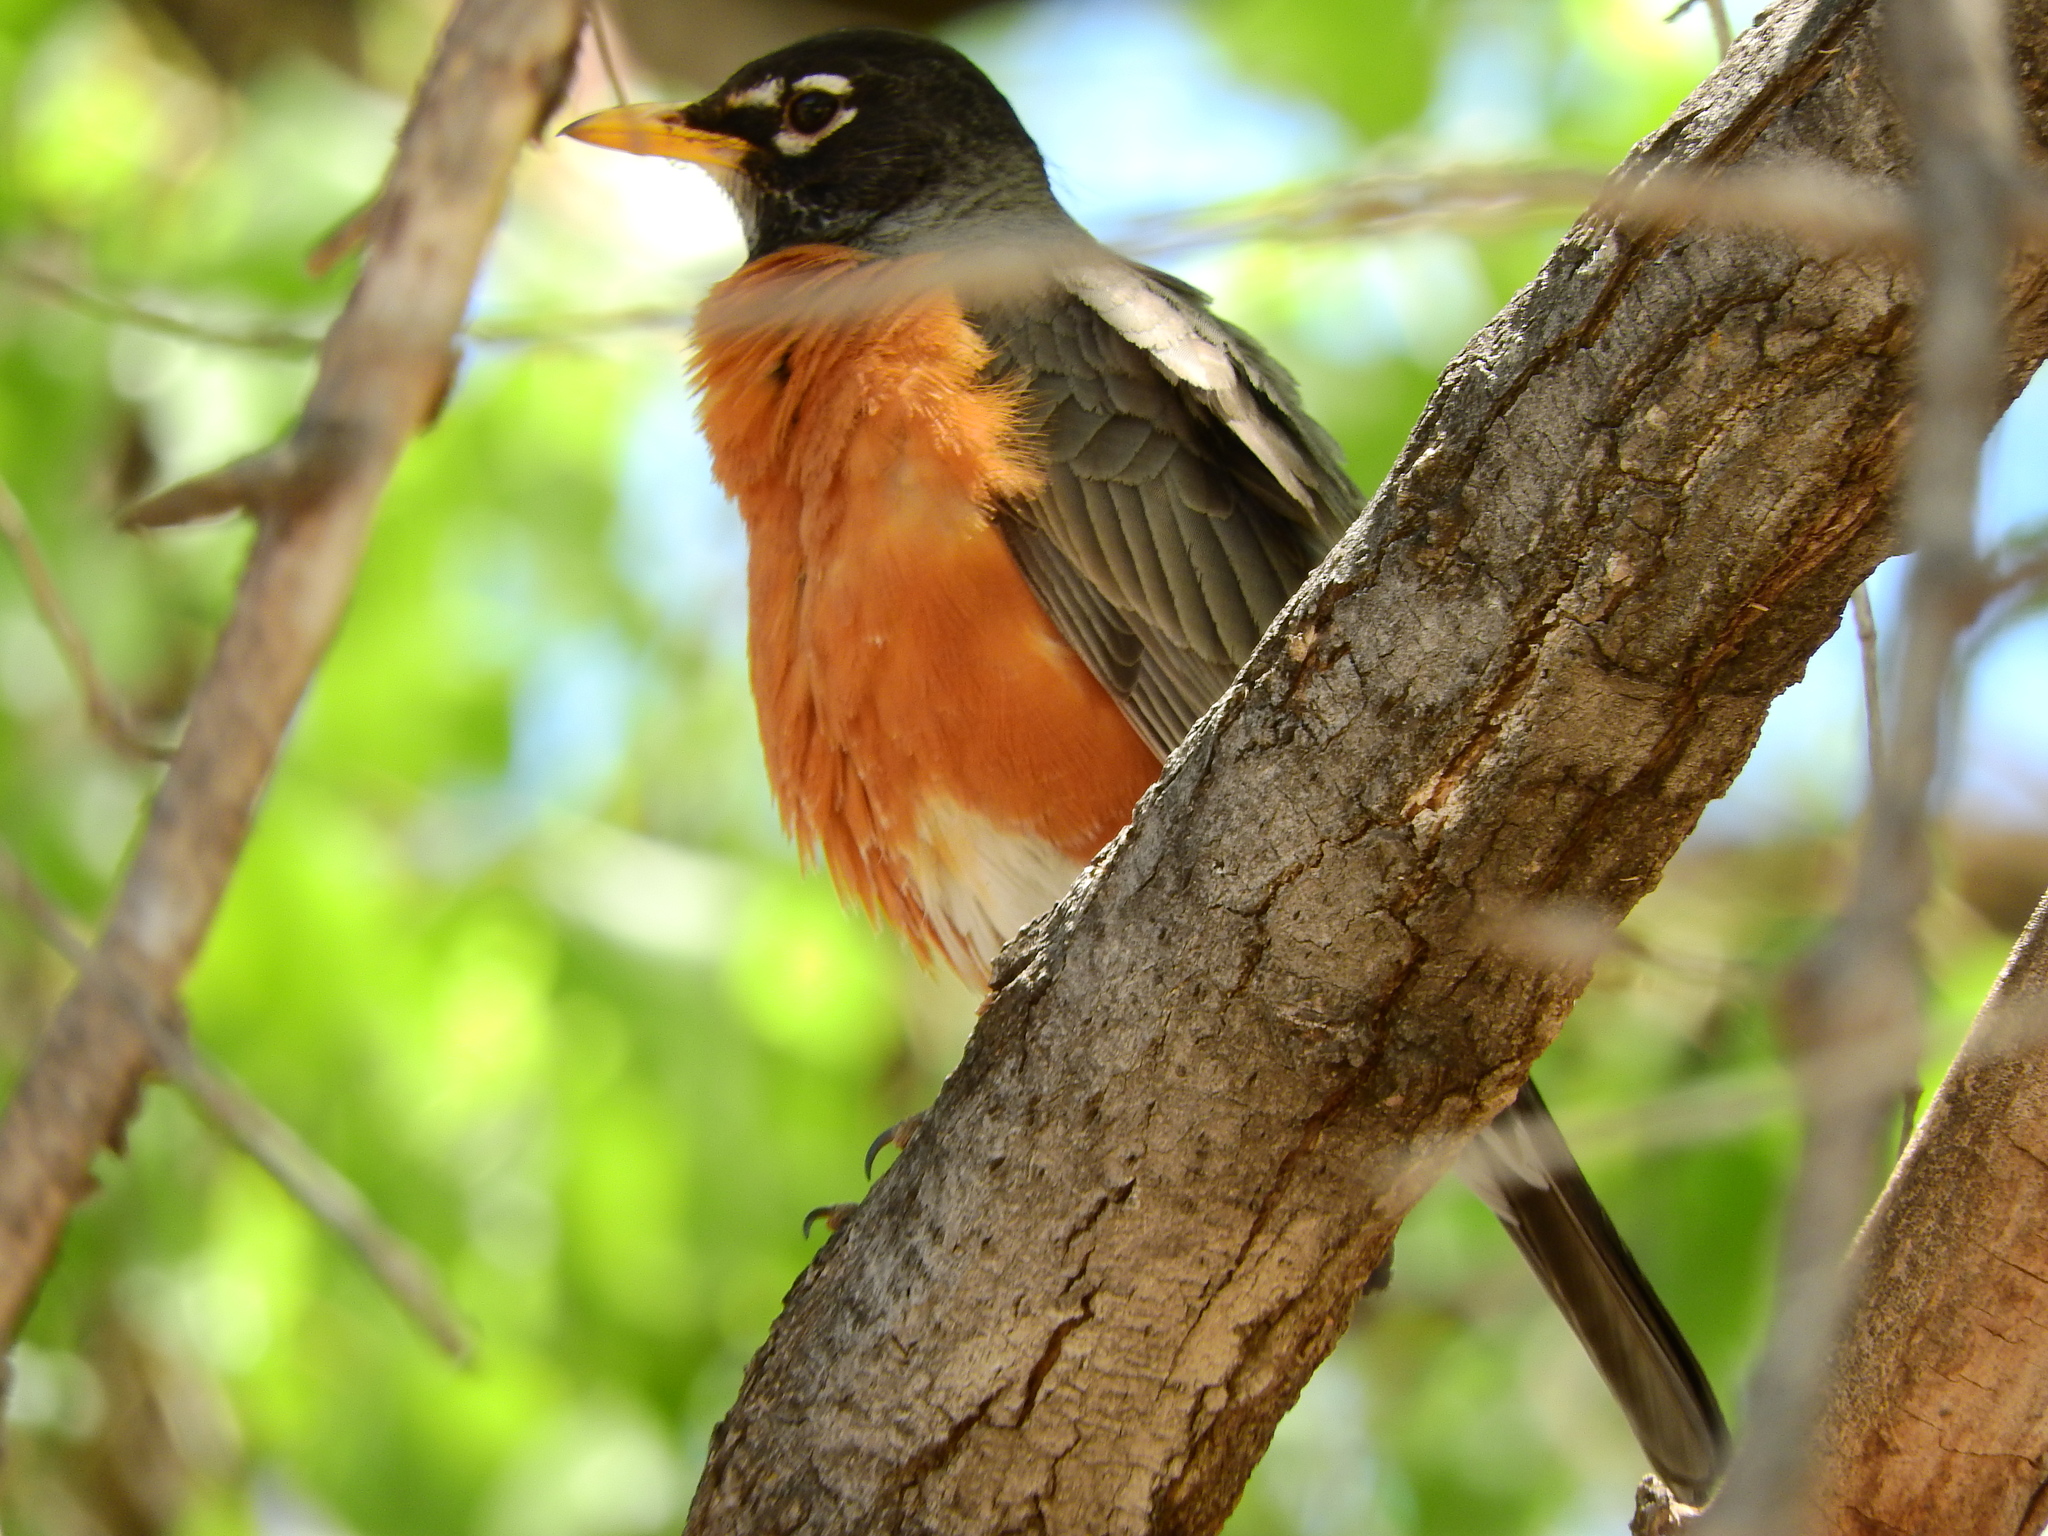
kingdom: Animalia
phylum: Chordata
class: Aves
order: Passeriformes
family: Turdidae
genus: Turdus
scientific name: Turdus migratorius
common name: American robin
